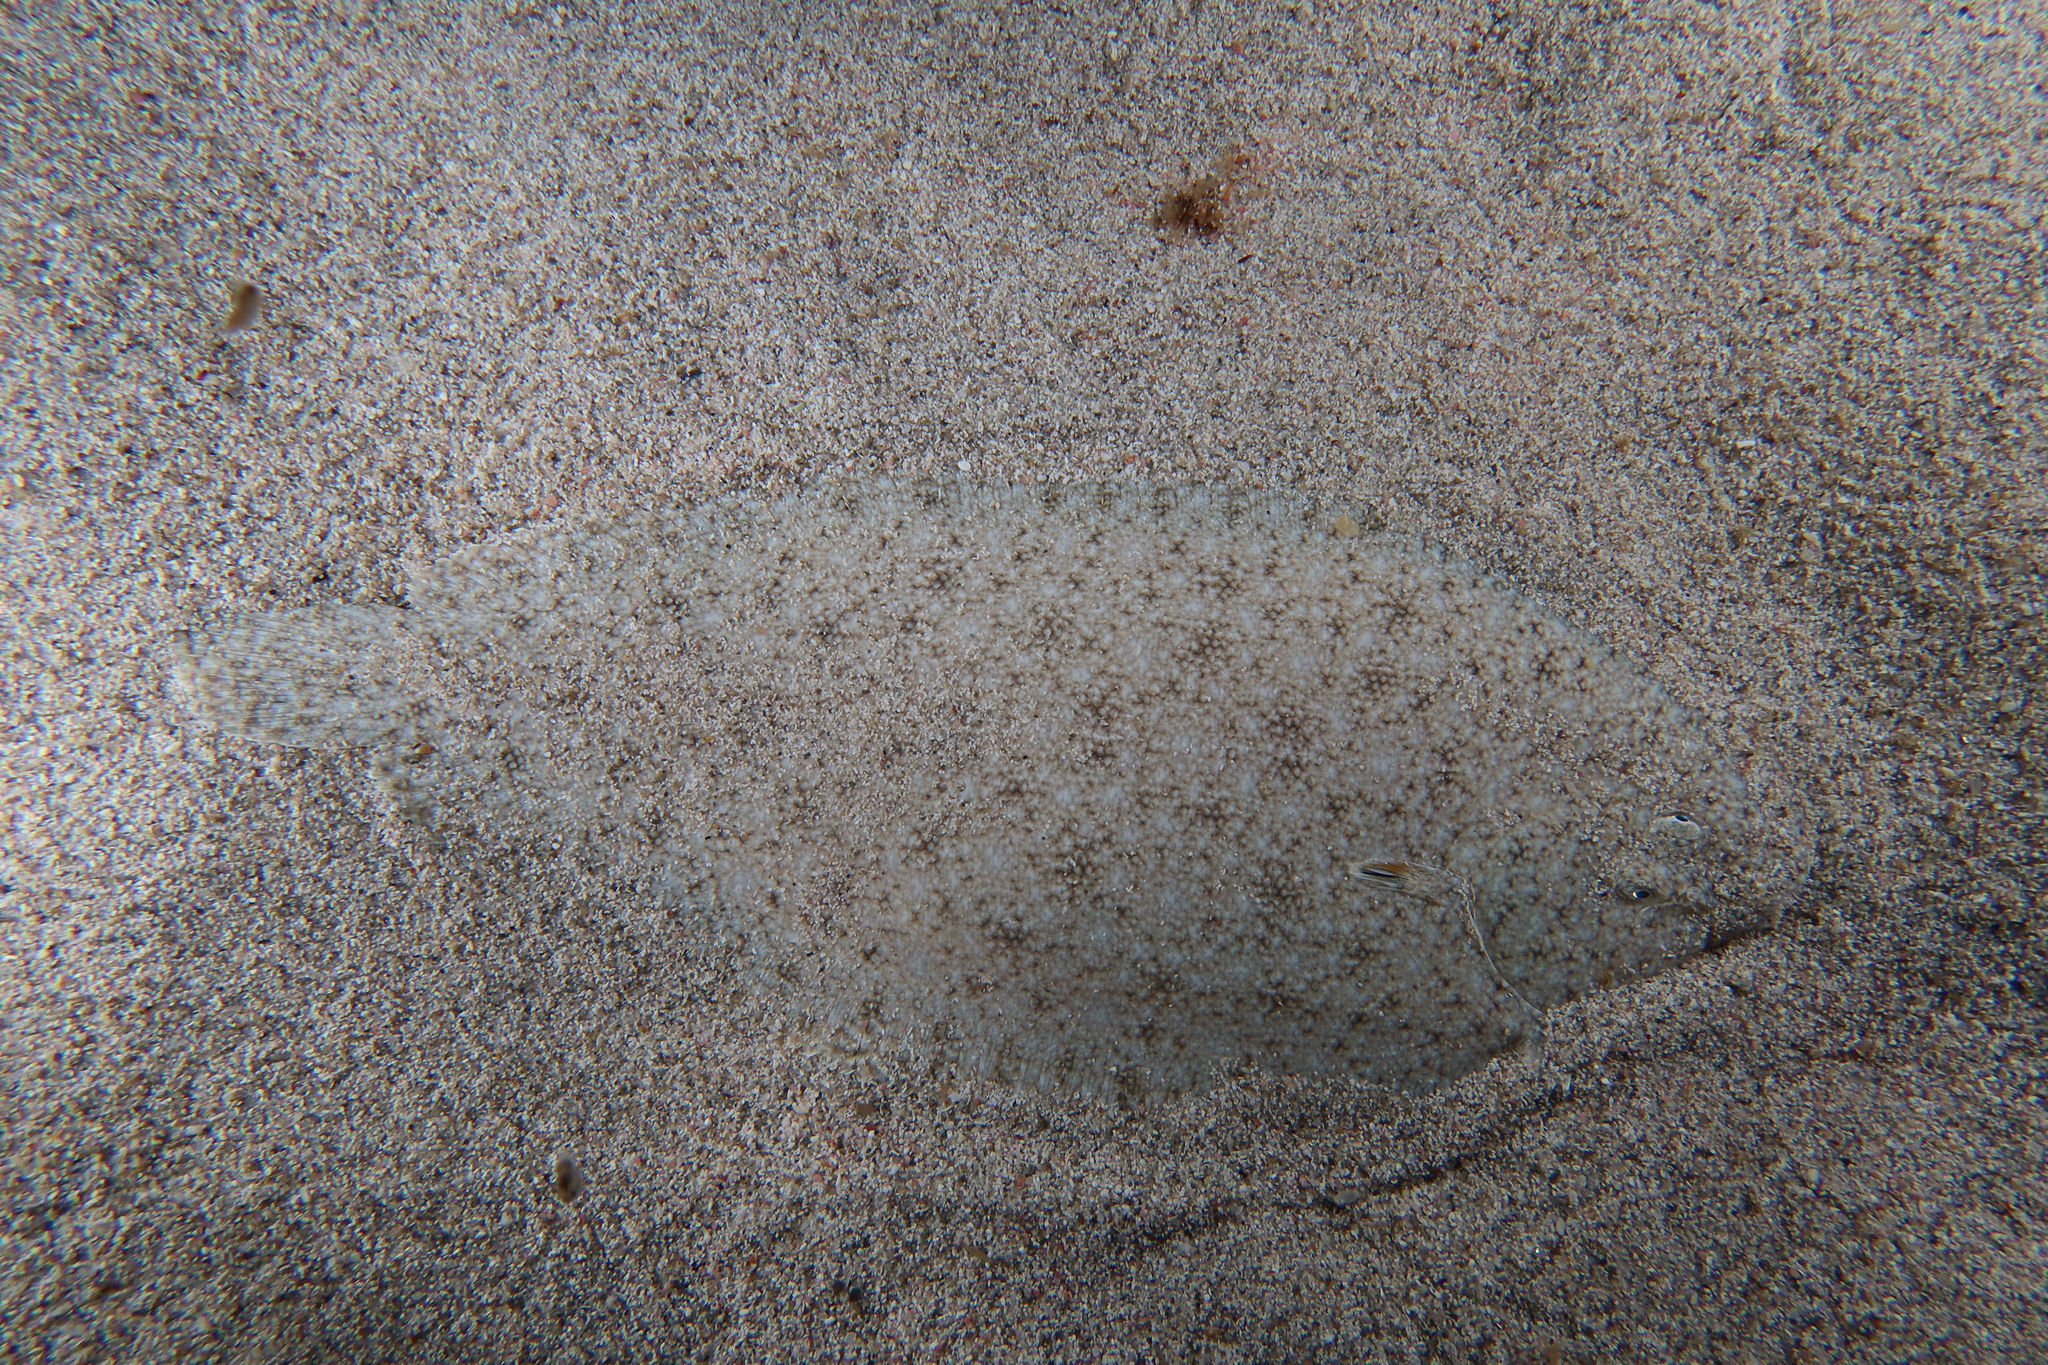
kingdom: Animalia
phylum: Chordata
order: Pleuronectiformes
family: Soleidae
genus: Pegusa
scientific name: Pegusa nasuta
